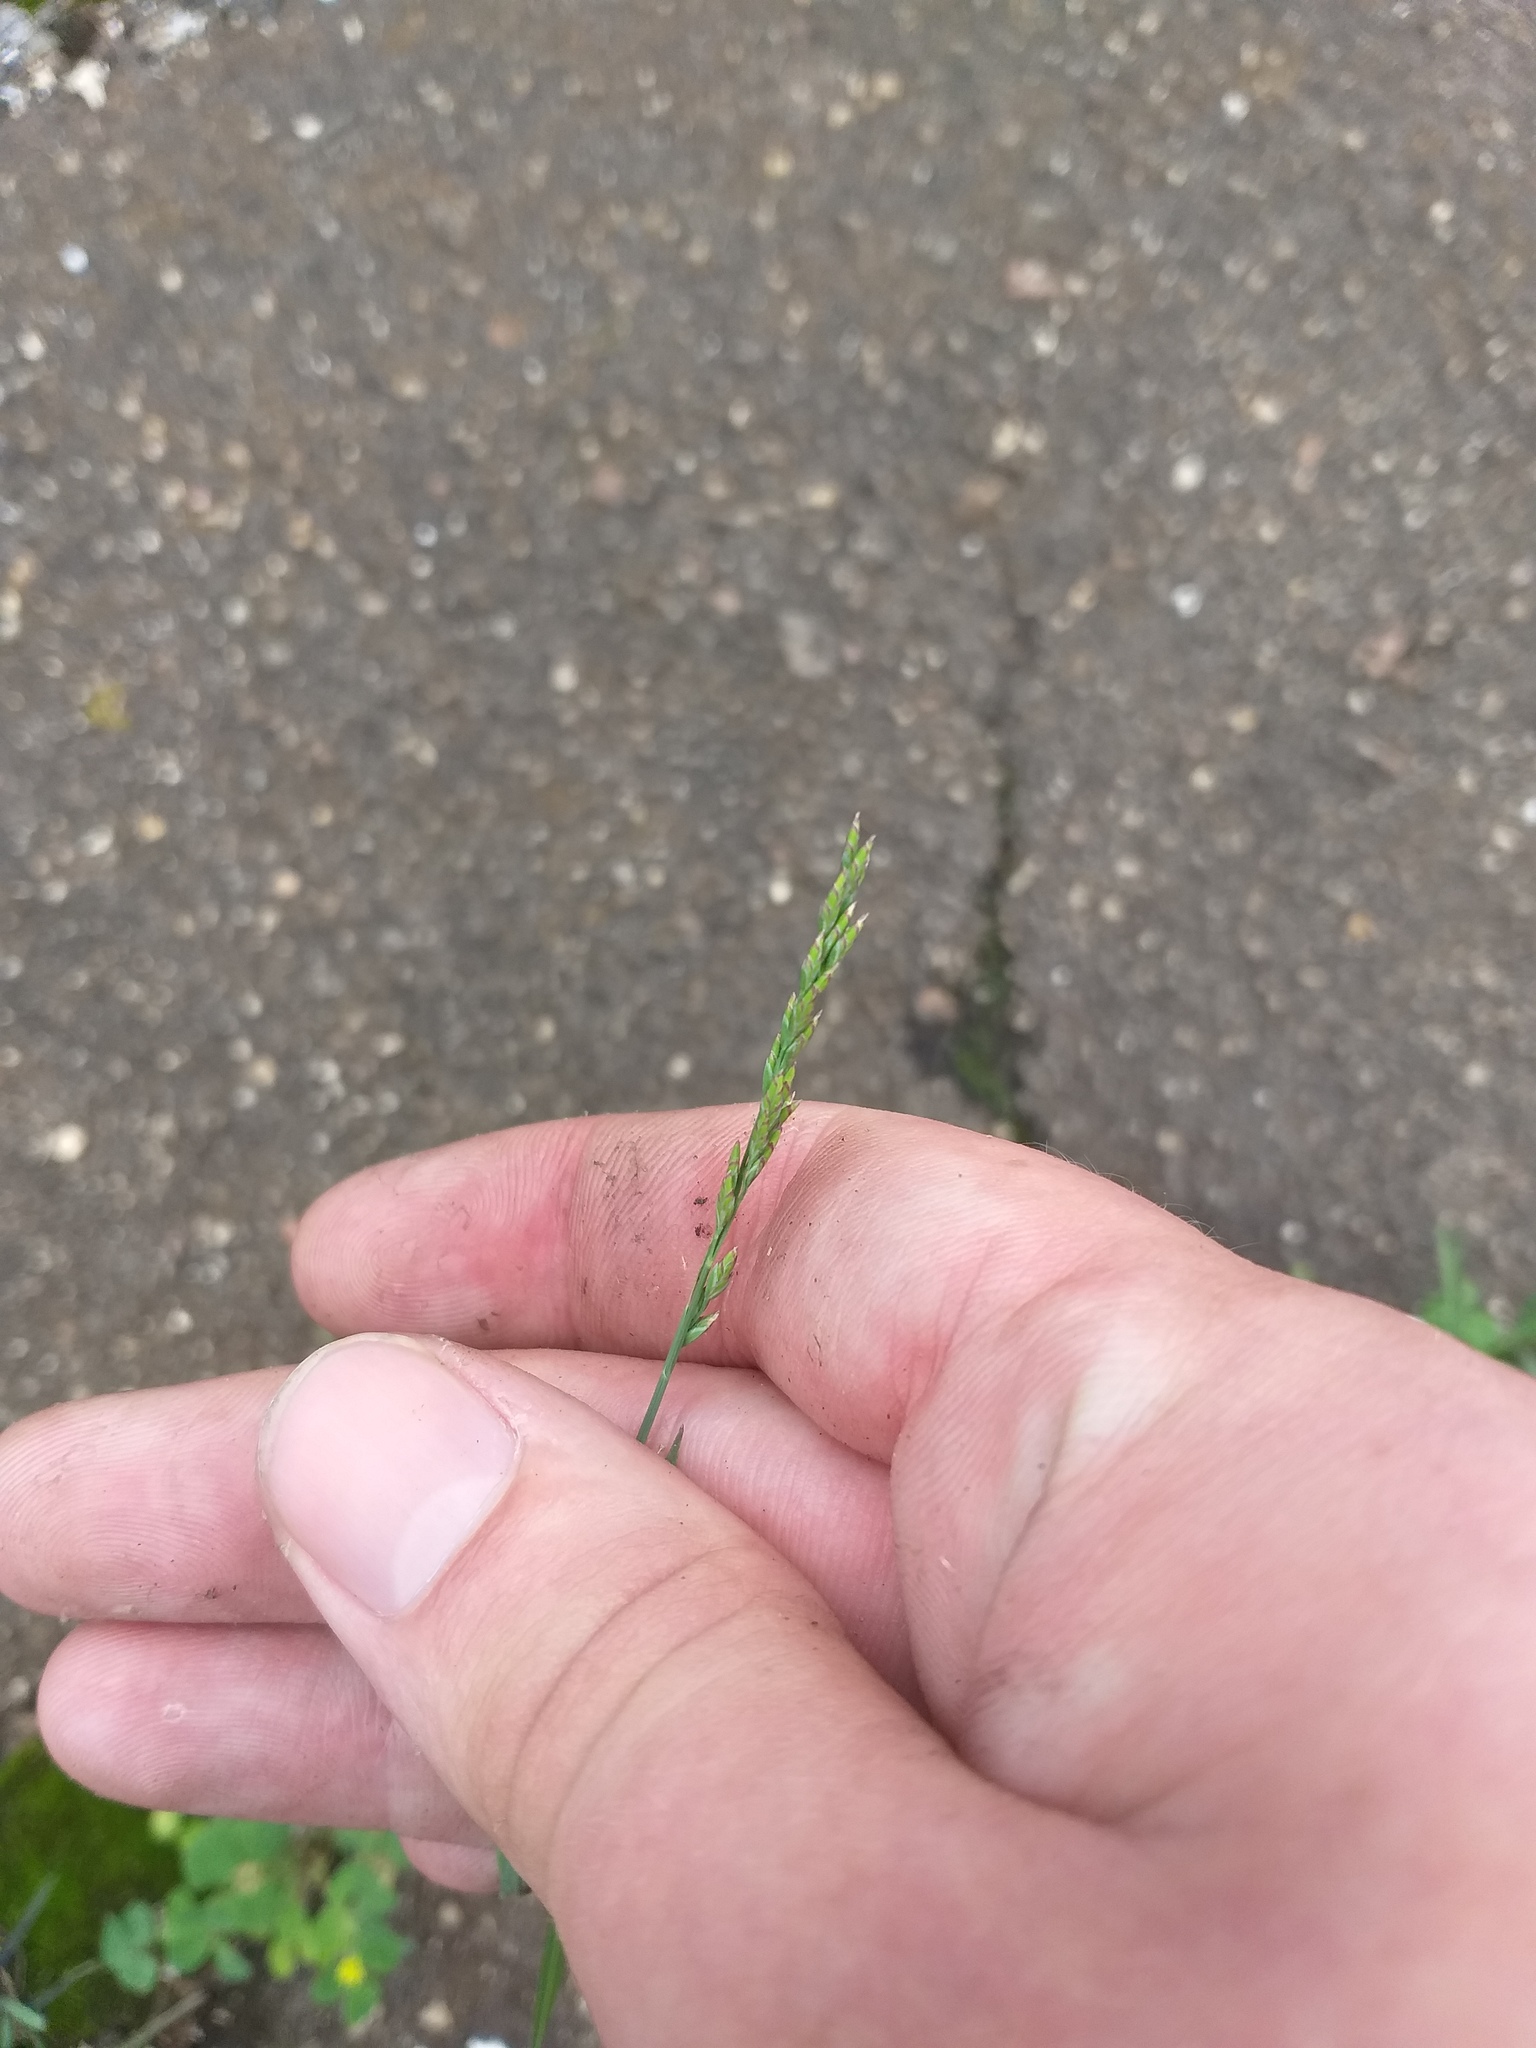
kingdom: Plantae
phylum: Tracheophyta
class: Liliopsida
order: Poales
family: Poaceae
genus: Poa
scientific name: Poa compressa
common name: Canada bluegrass
